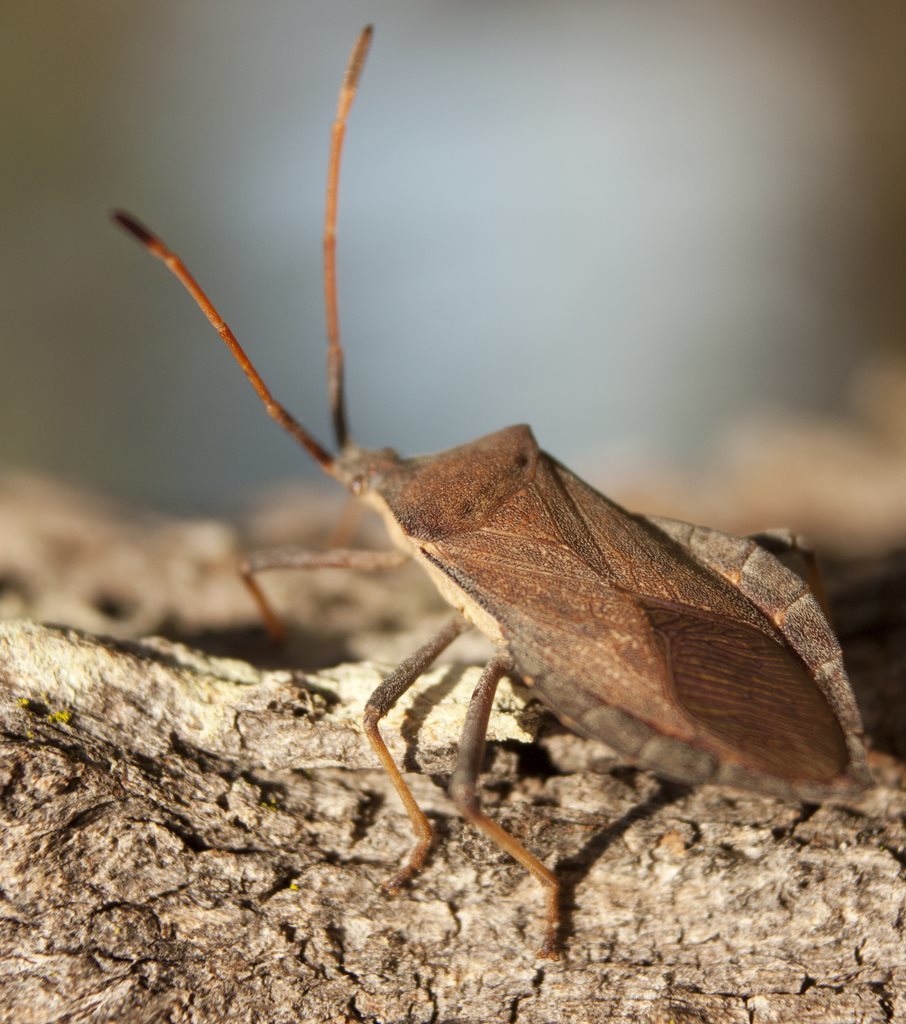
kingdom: Animalia
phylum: Arthropoda
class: Insecta
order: Hemiptera
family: Coreidae
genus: Amorbus
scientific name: Amorbus rubiginosus
